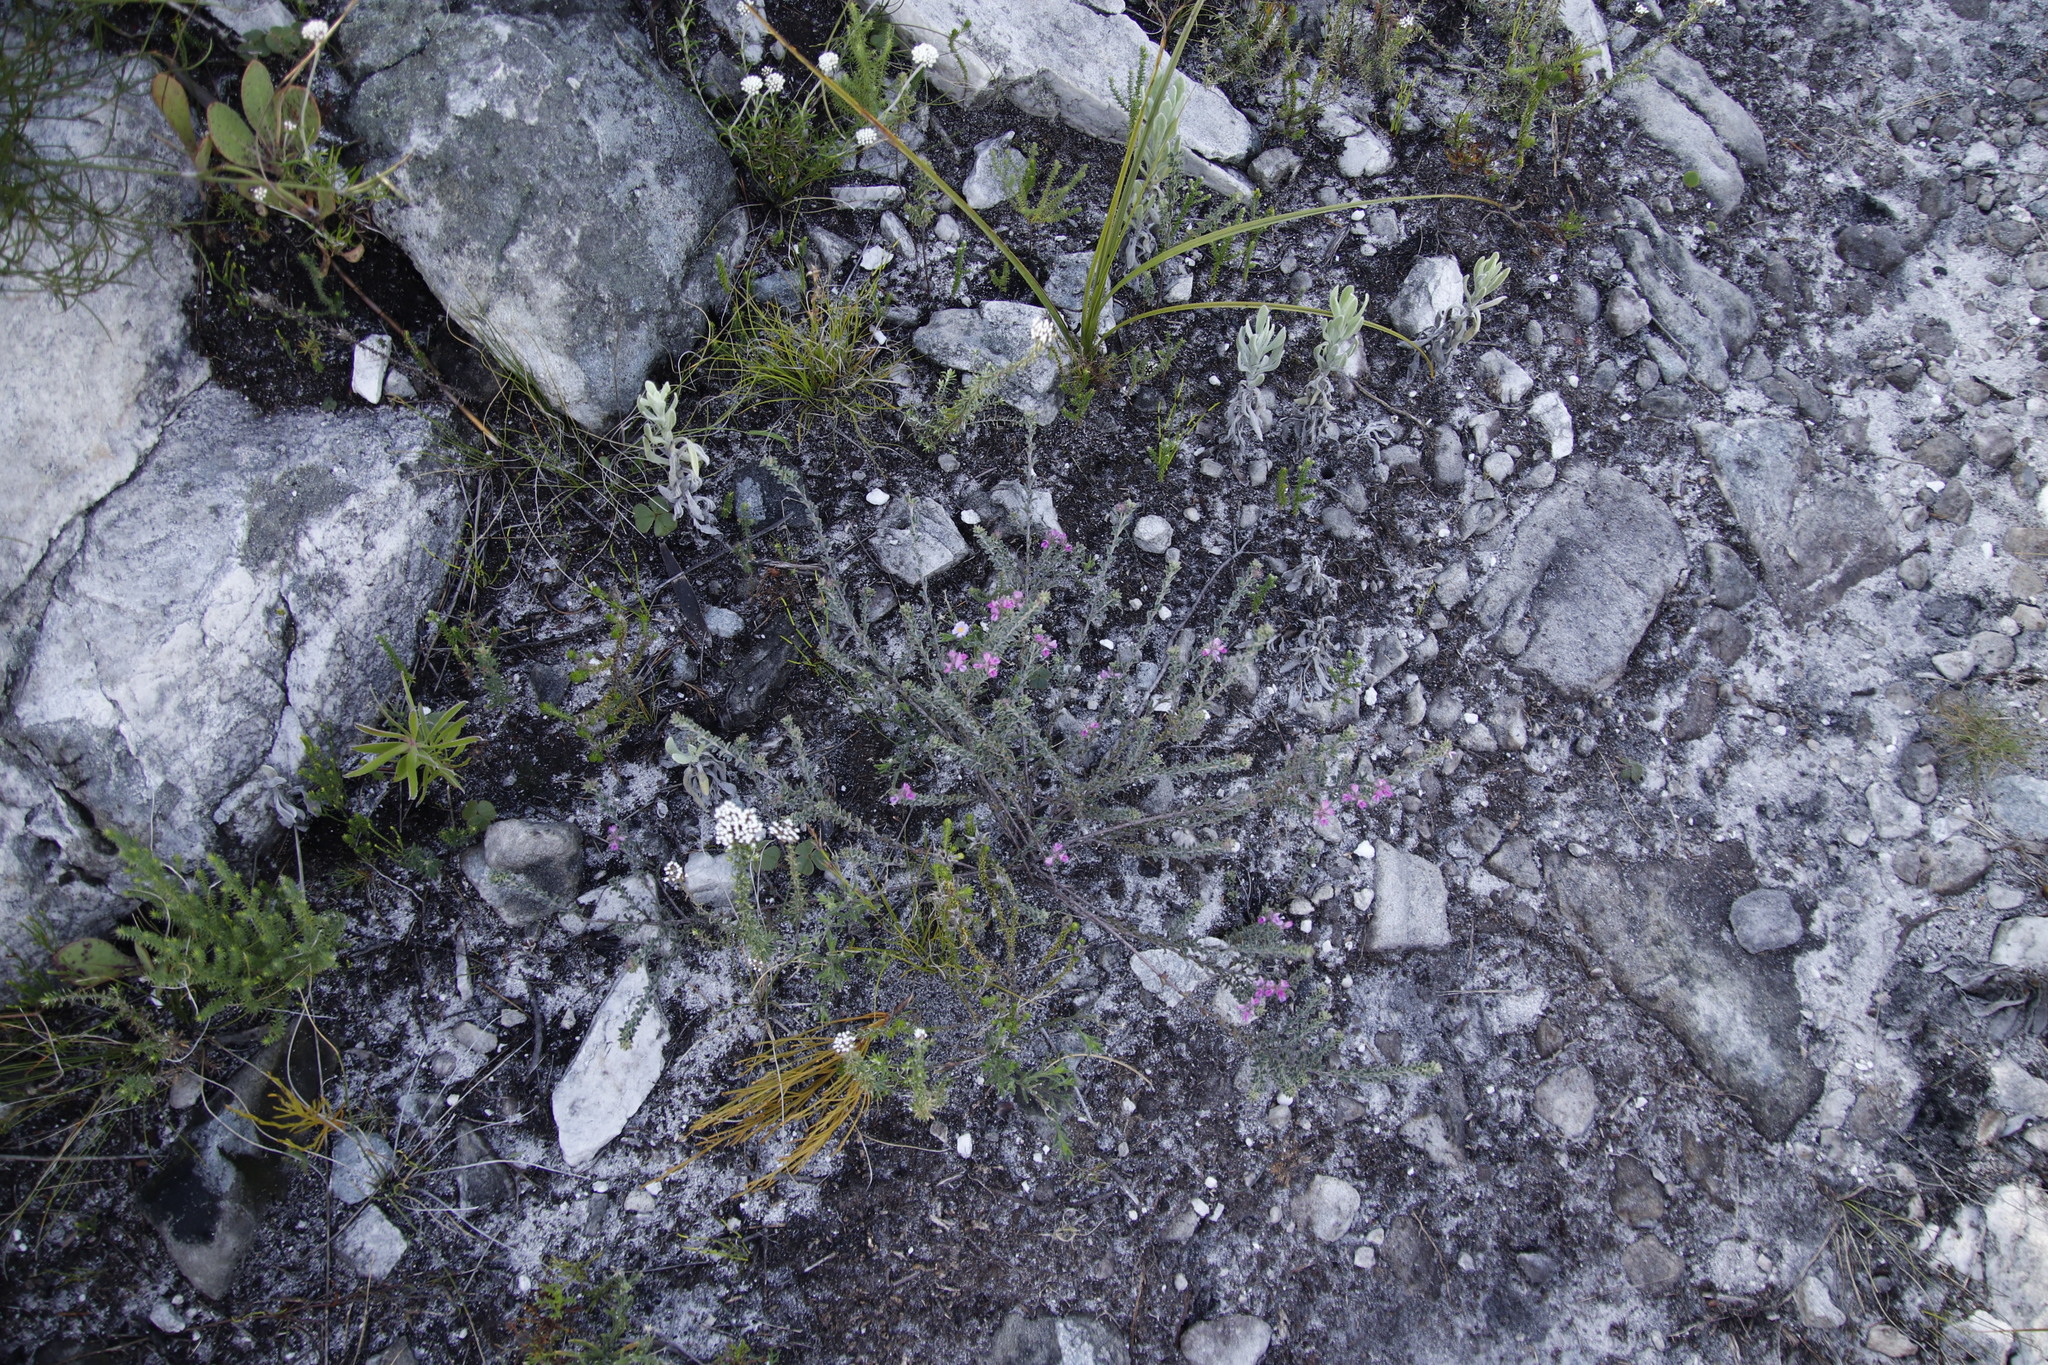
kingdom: Plantae
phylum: Tracheophyta
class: Magnoliopsida
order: Fabales
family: Fabaceae
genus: Indigofera
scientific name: Indigofera glomerata
